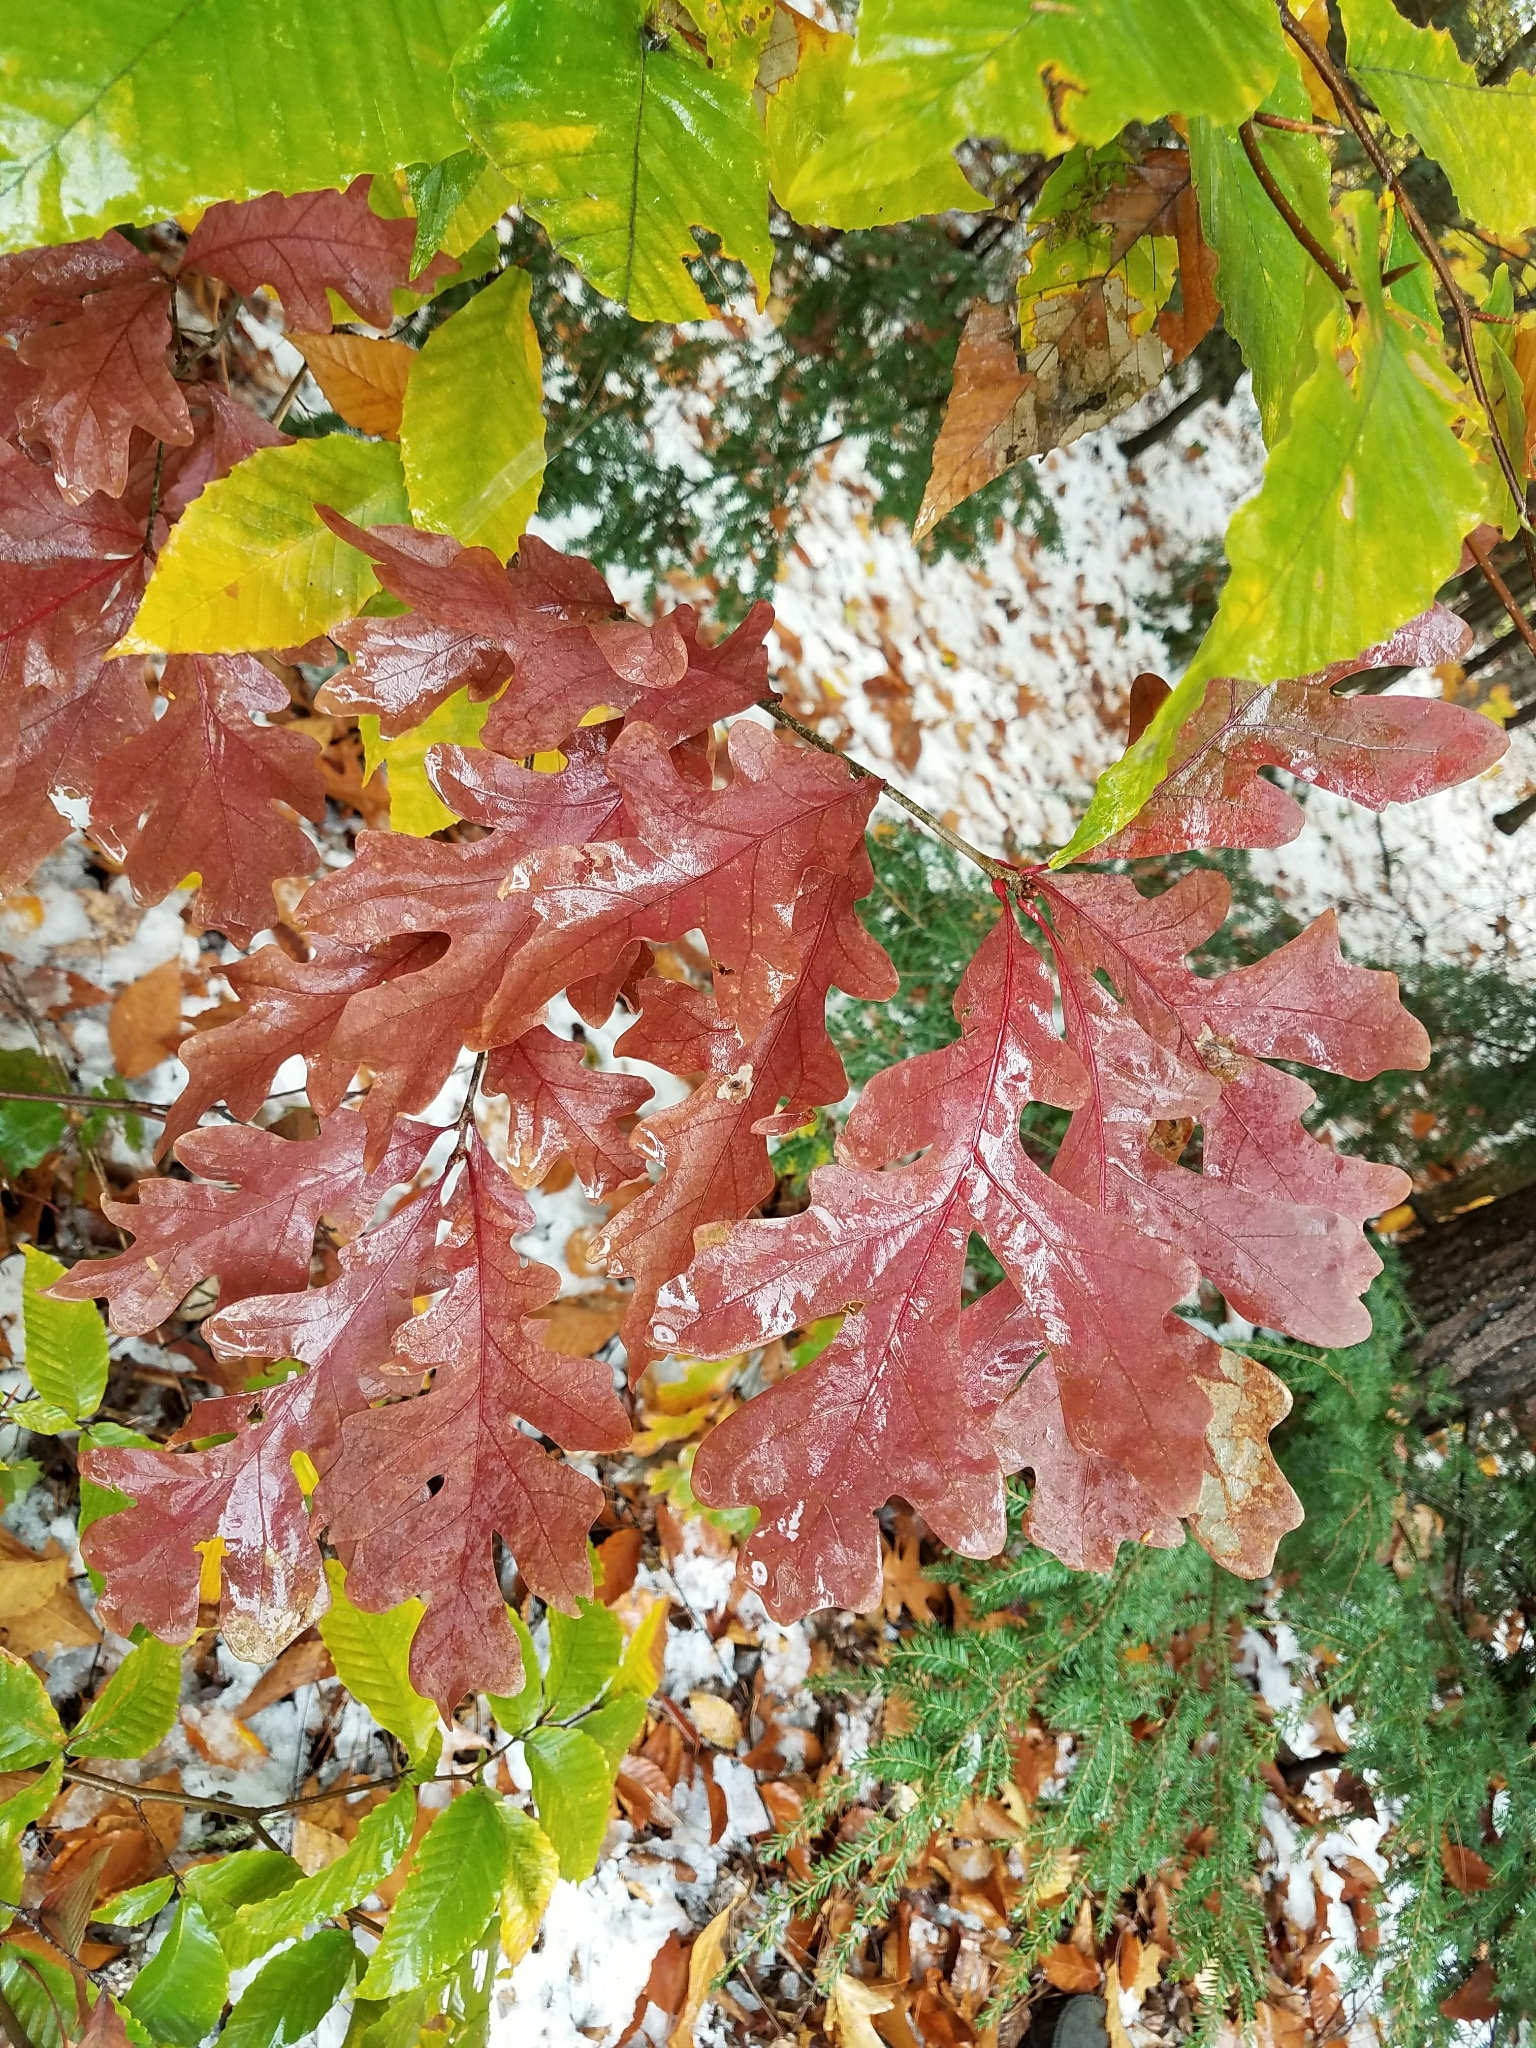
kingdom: Plantae
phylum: Tracheophyta
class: Magnoliopsida
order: Fagales
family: Fagaceae
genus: Quercus
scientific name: Quercus alba
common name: White oak
